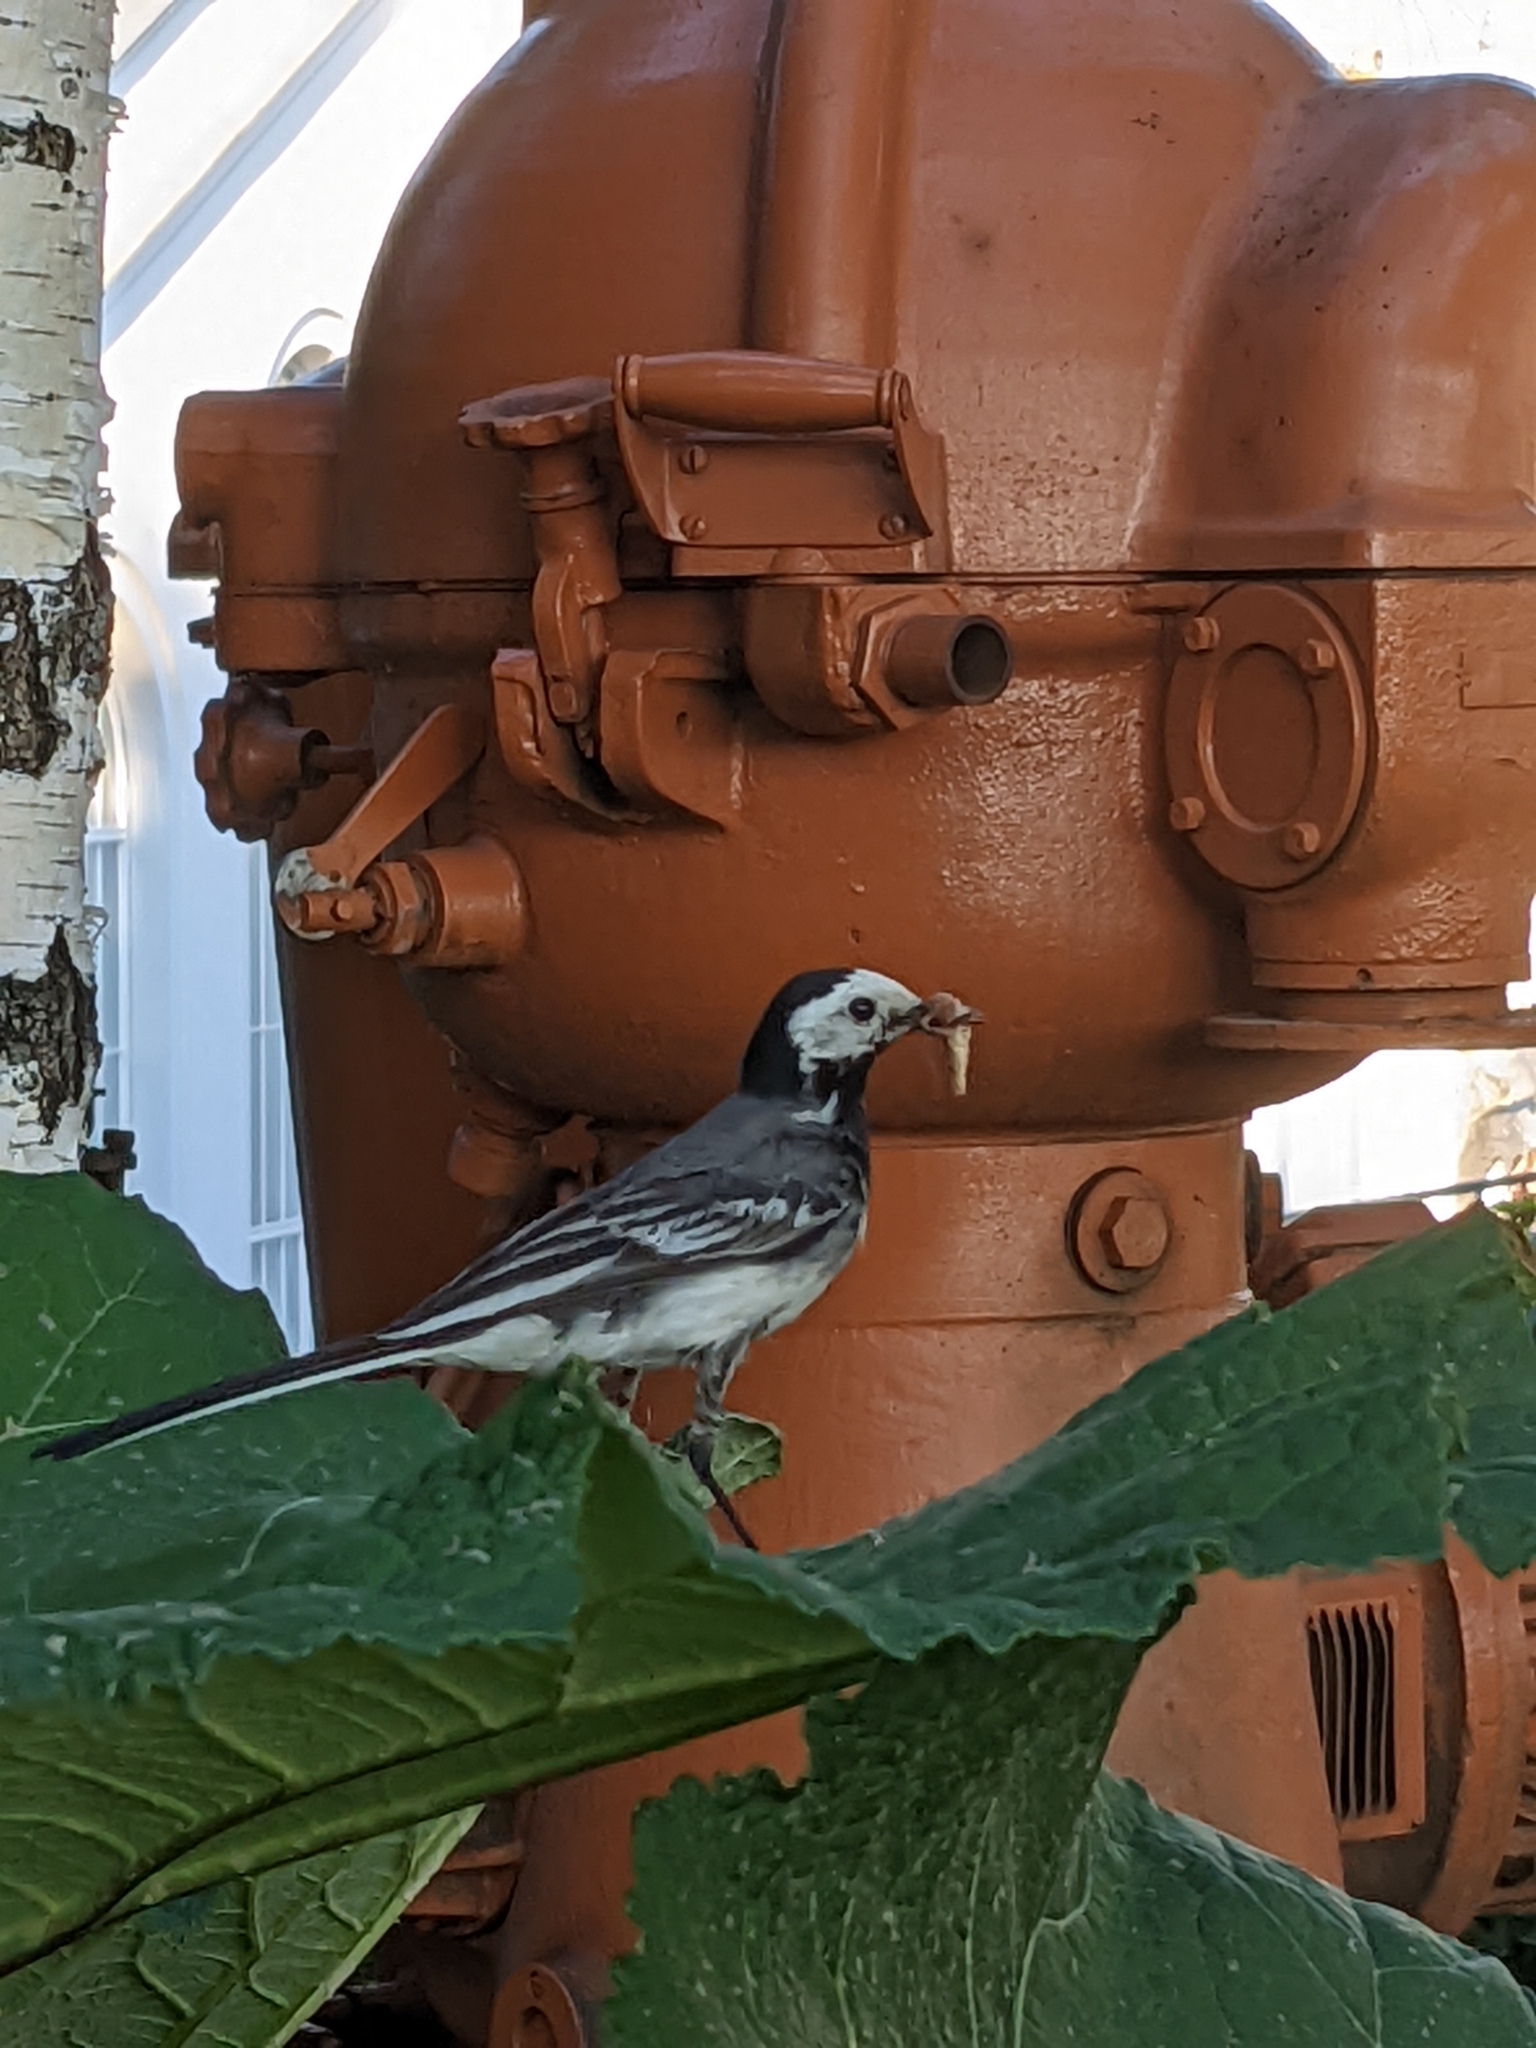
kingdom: Animalia
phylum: Chordata
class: Aves
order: Passeriformes
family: Motacillidae
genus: Motacilla
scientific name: Motacilla alba
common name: White wagtail
